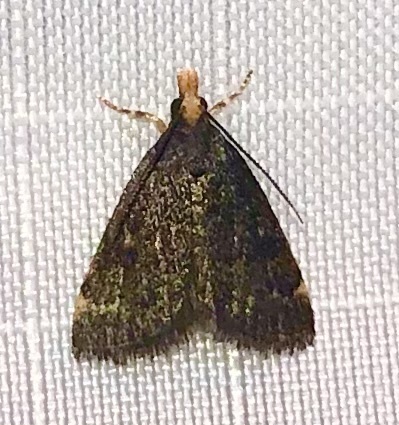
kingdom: Animalia
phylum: Arthropoda
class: Insecta
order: Lepidoptera
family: Crambidae
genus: Pyrausta
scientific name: Pyrausta merrickalis
